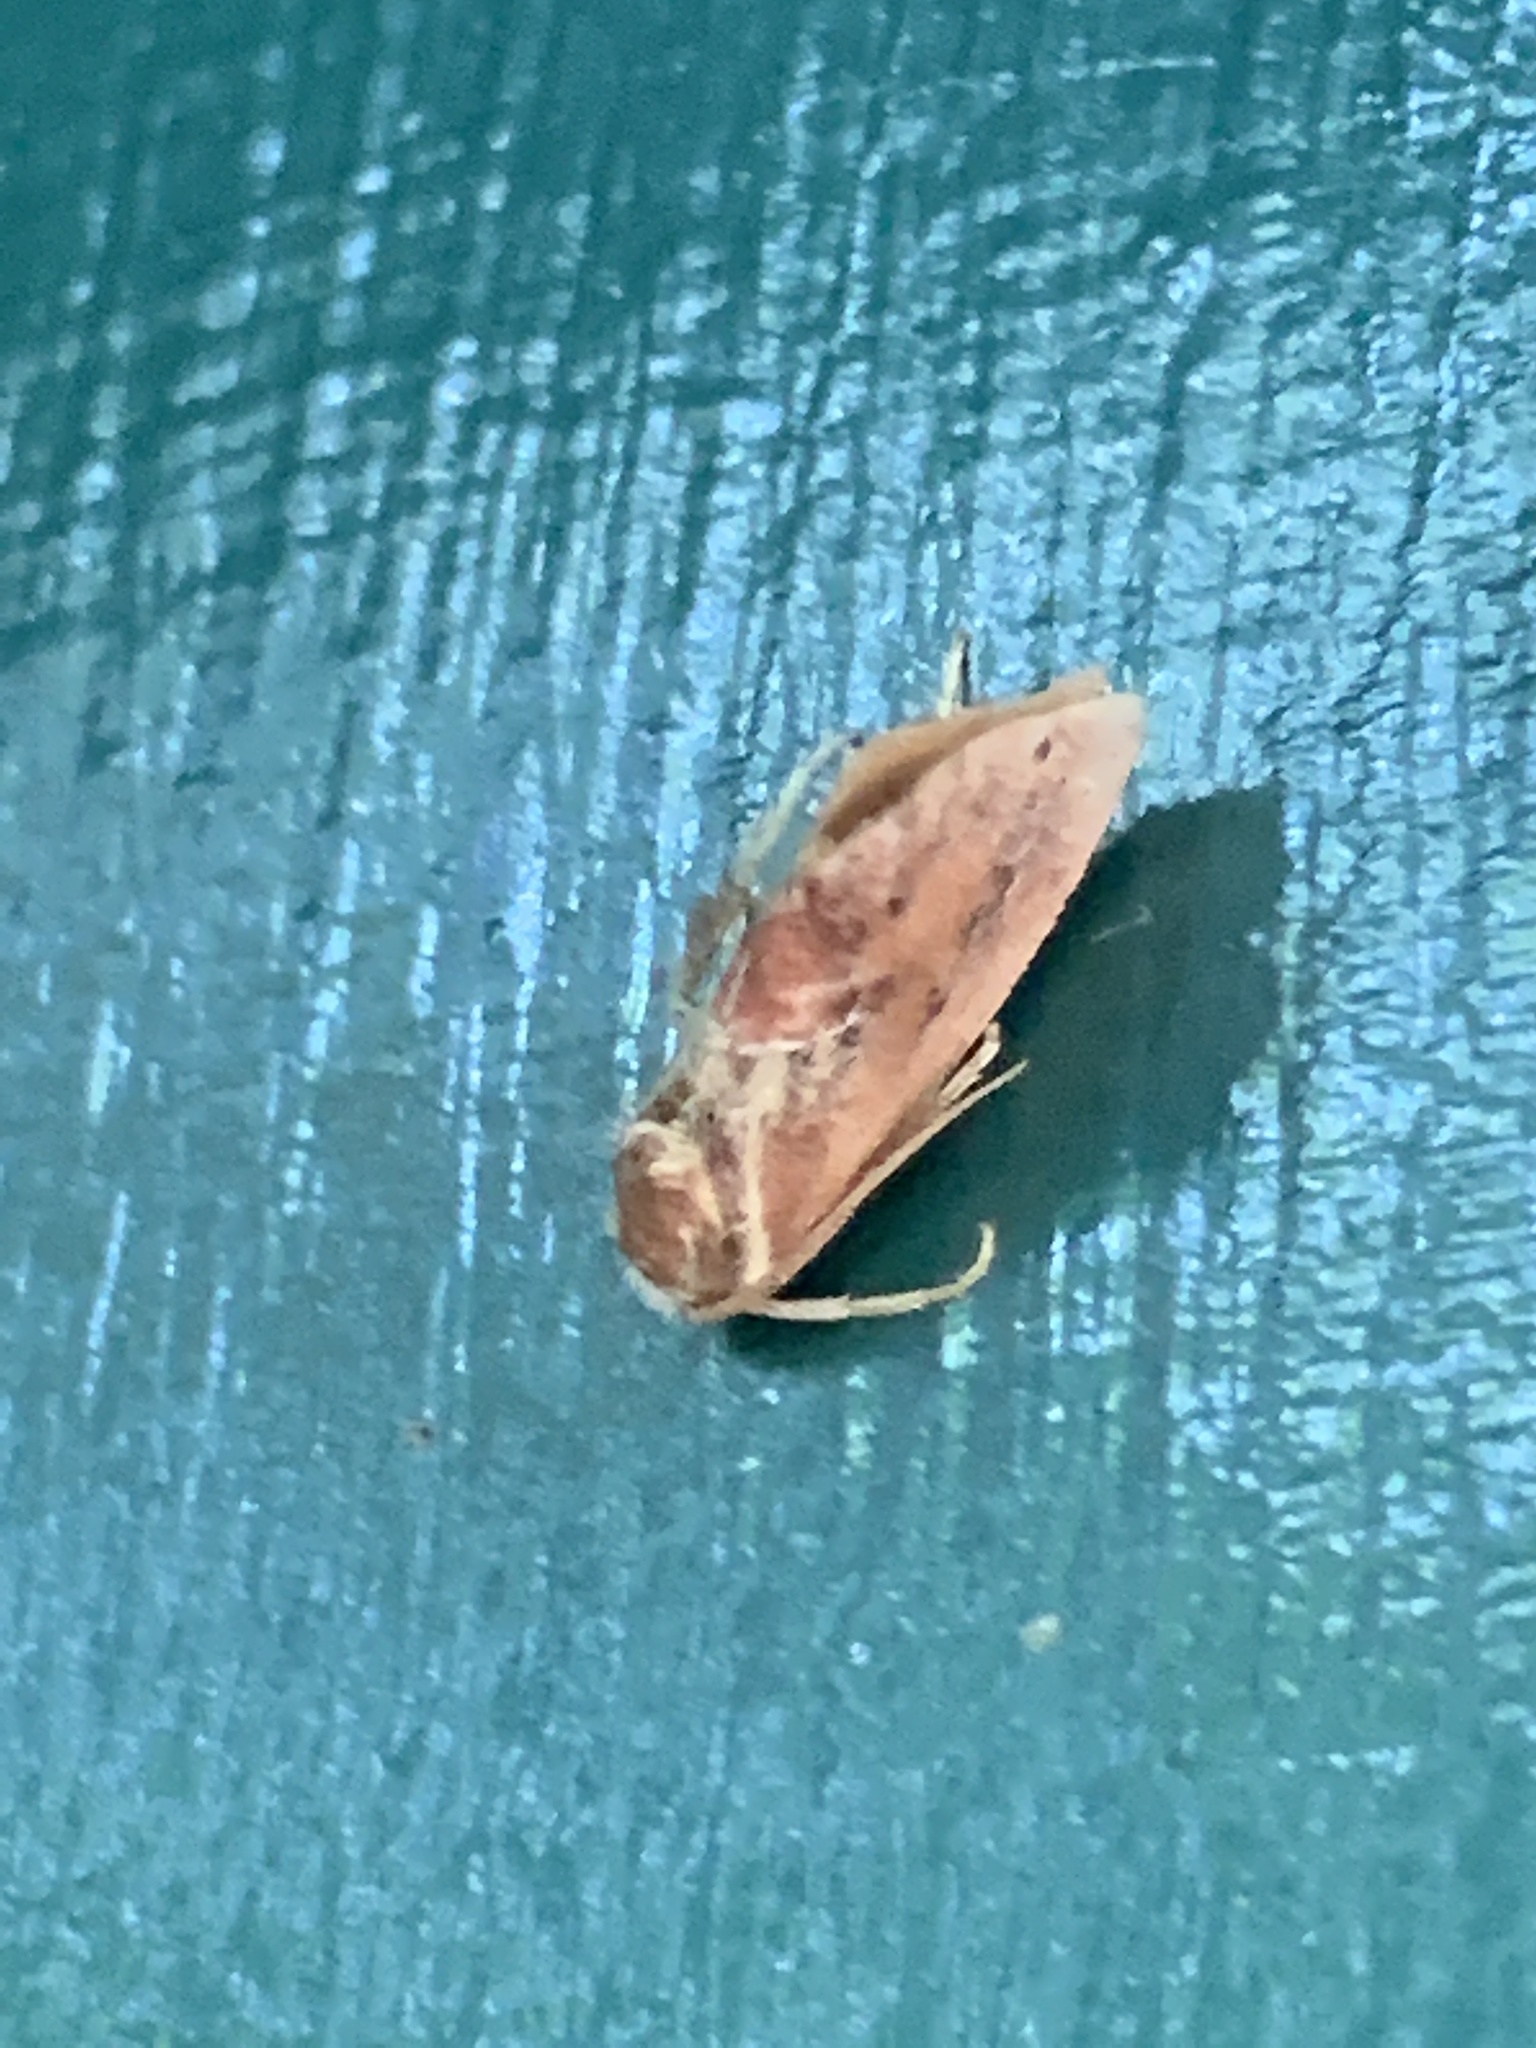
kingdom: Animalia
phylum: Arthropoda
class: Insecta
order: Lepidoptera
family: Limacodidae
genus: Adoneta
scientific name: Adoneta spinuloides
